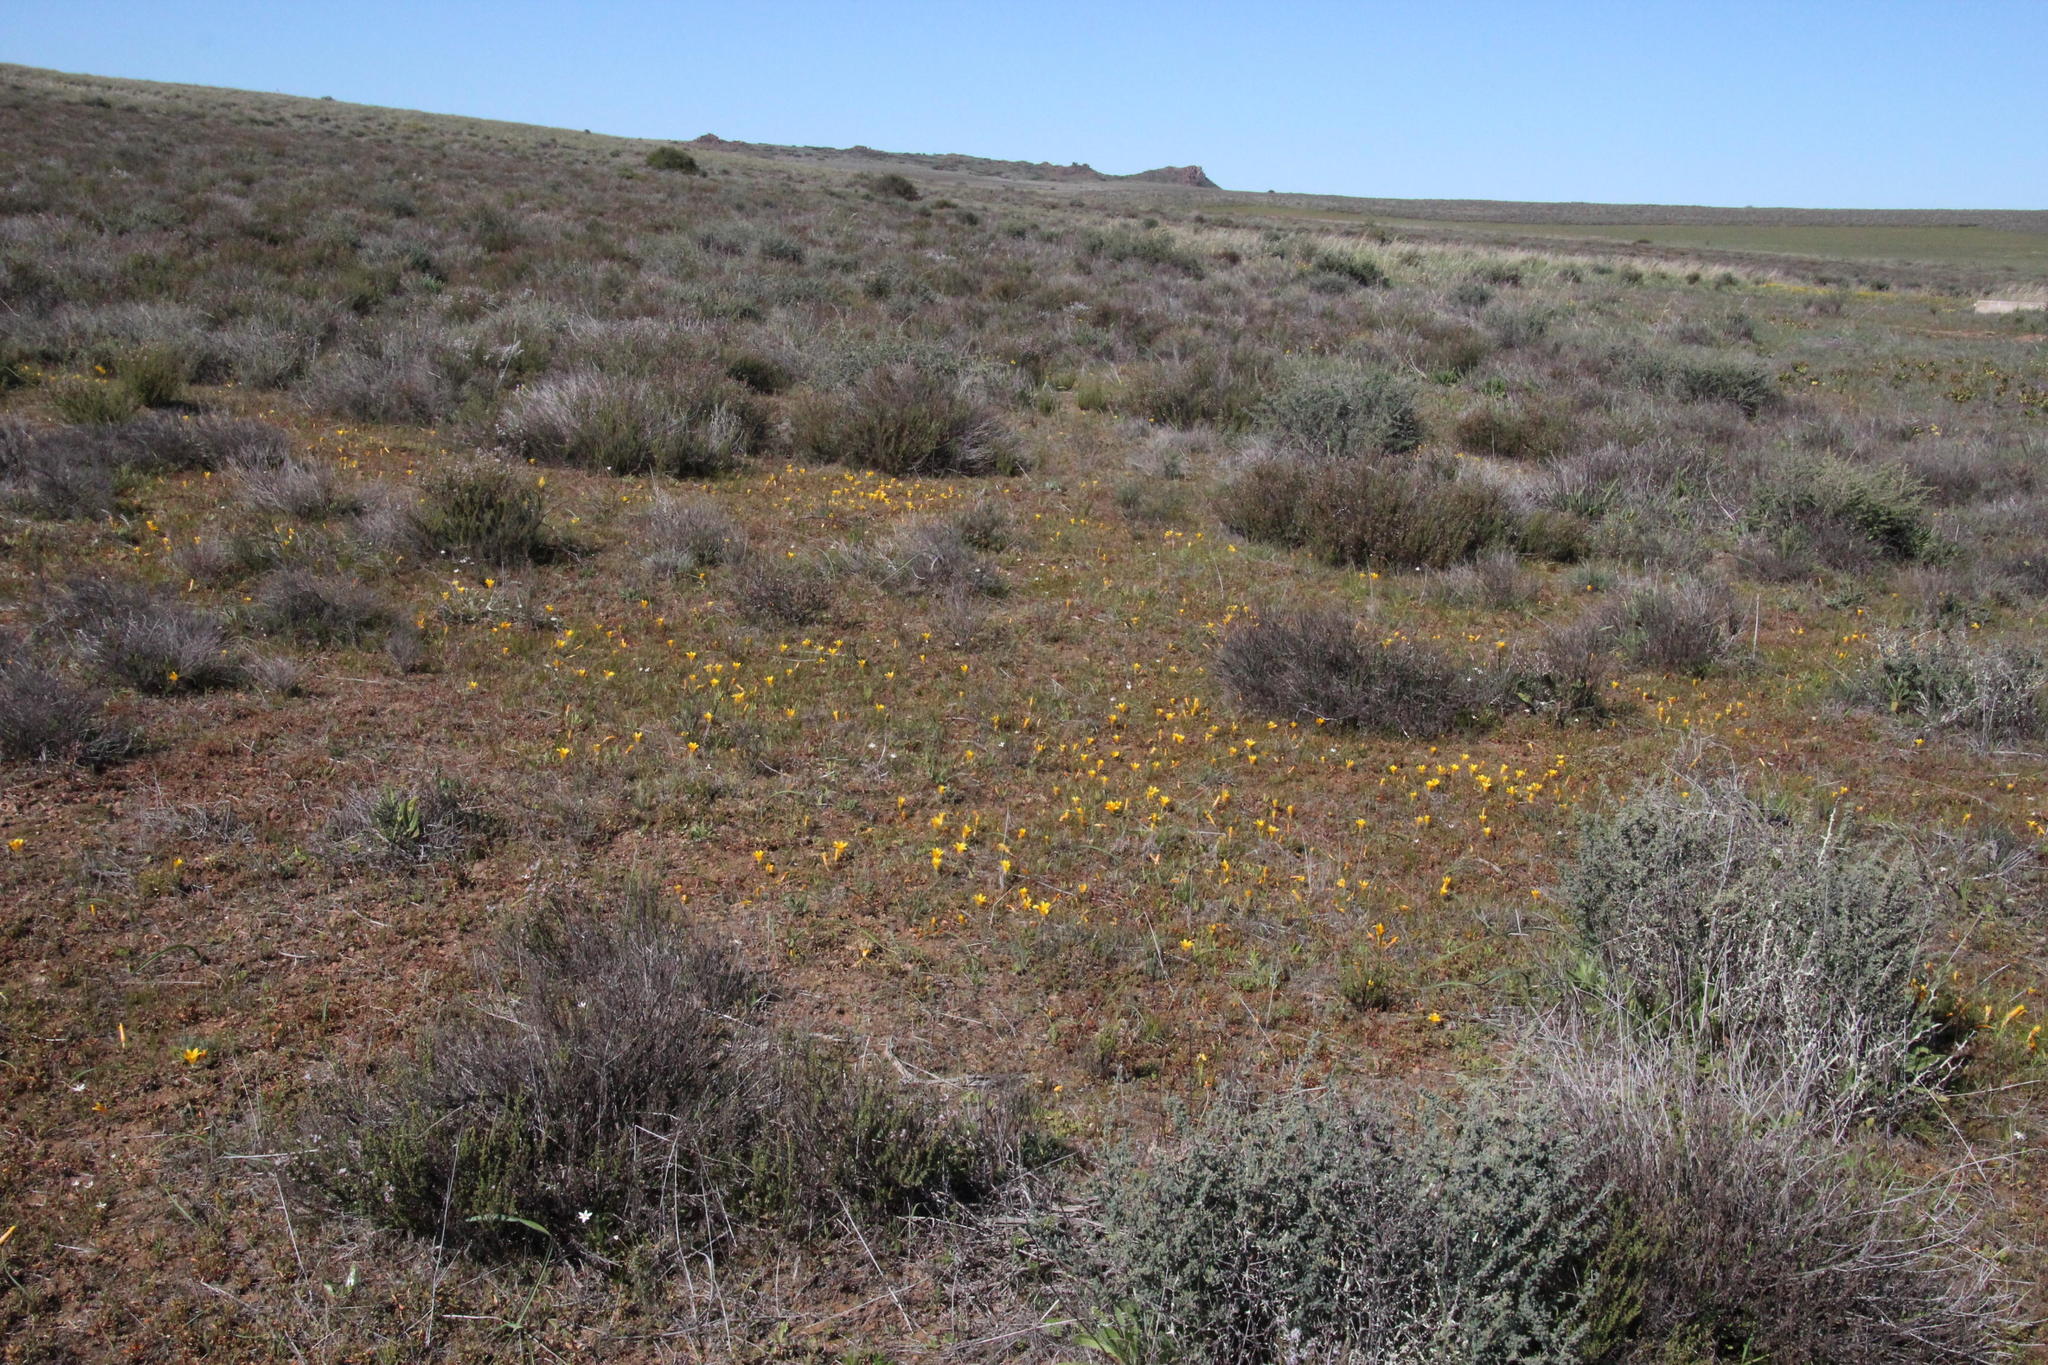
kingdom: Plantae
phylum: Tracheophyta
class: Liliopsida
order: Asparagales
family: Iridaceae
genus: Romulea
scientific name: Romulea tortuosa
